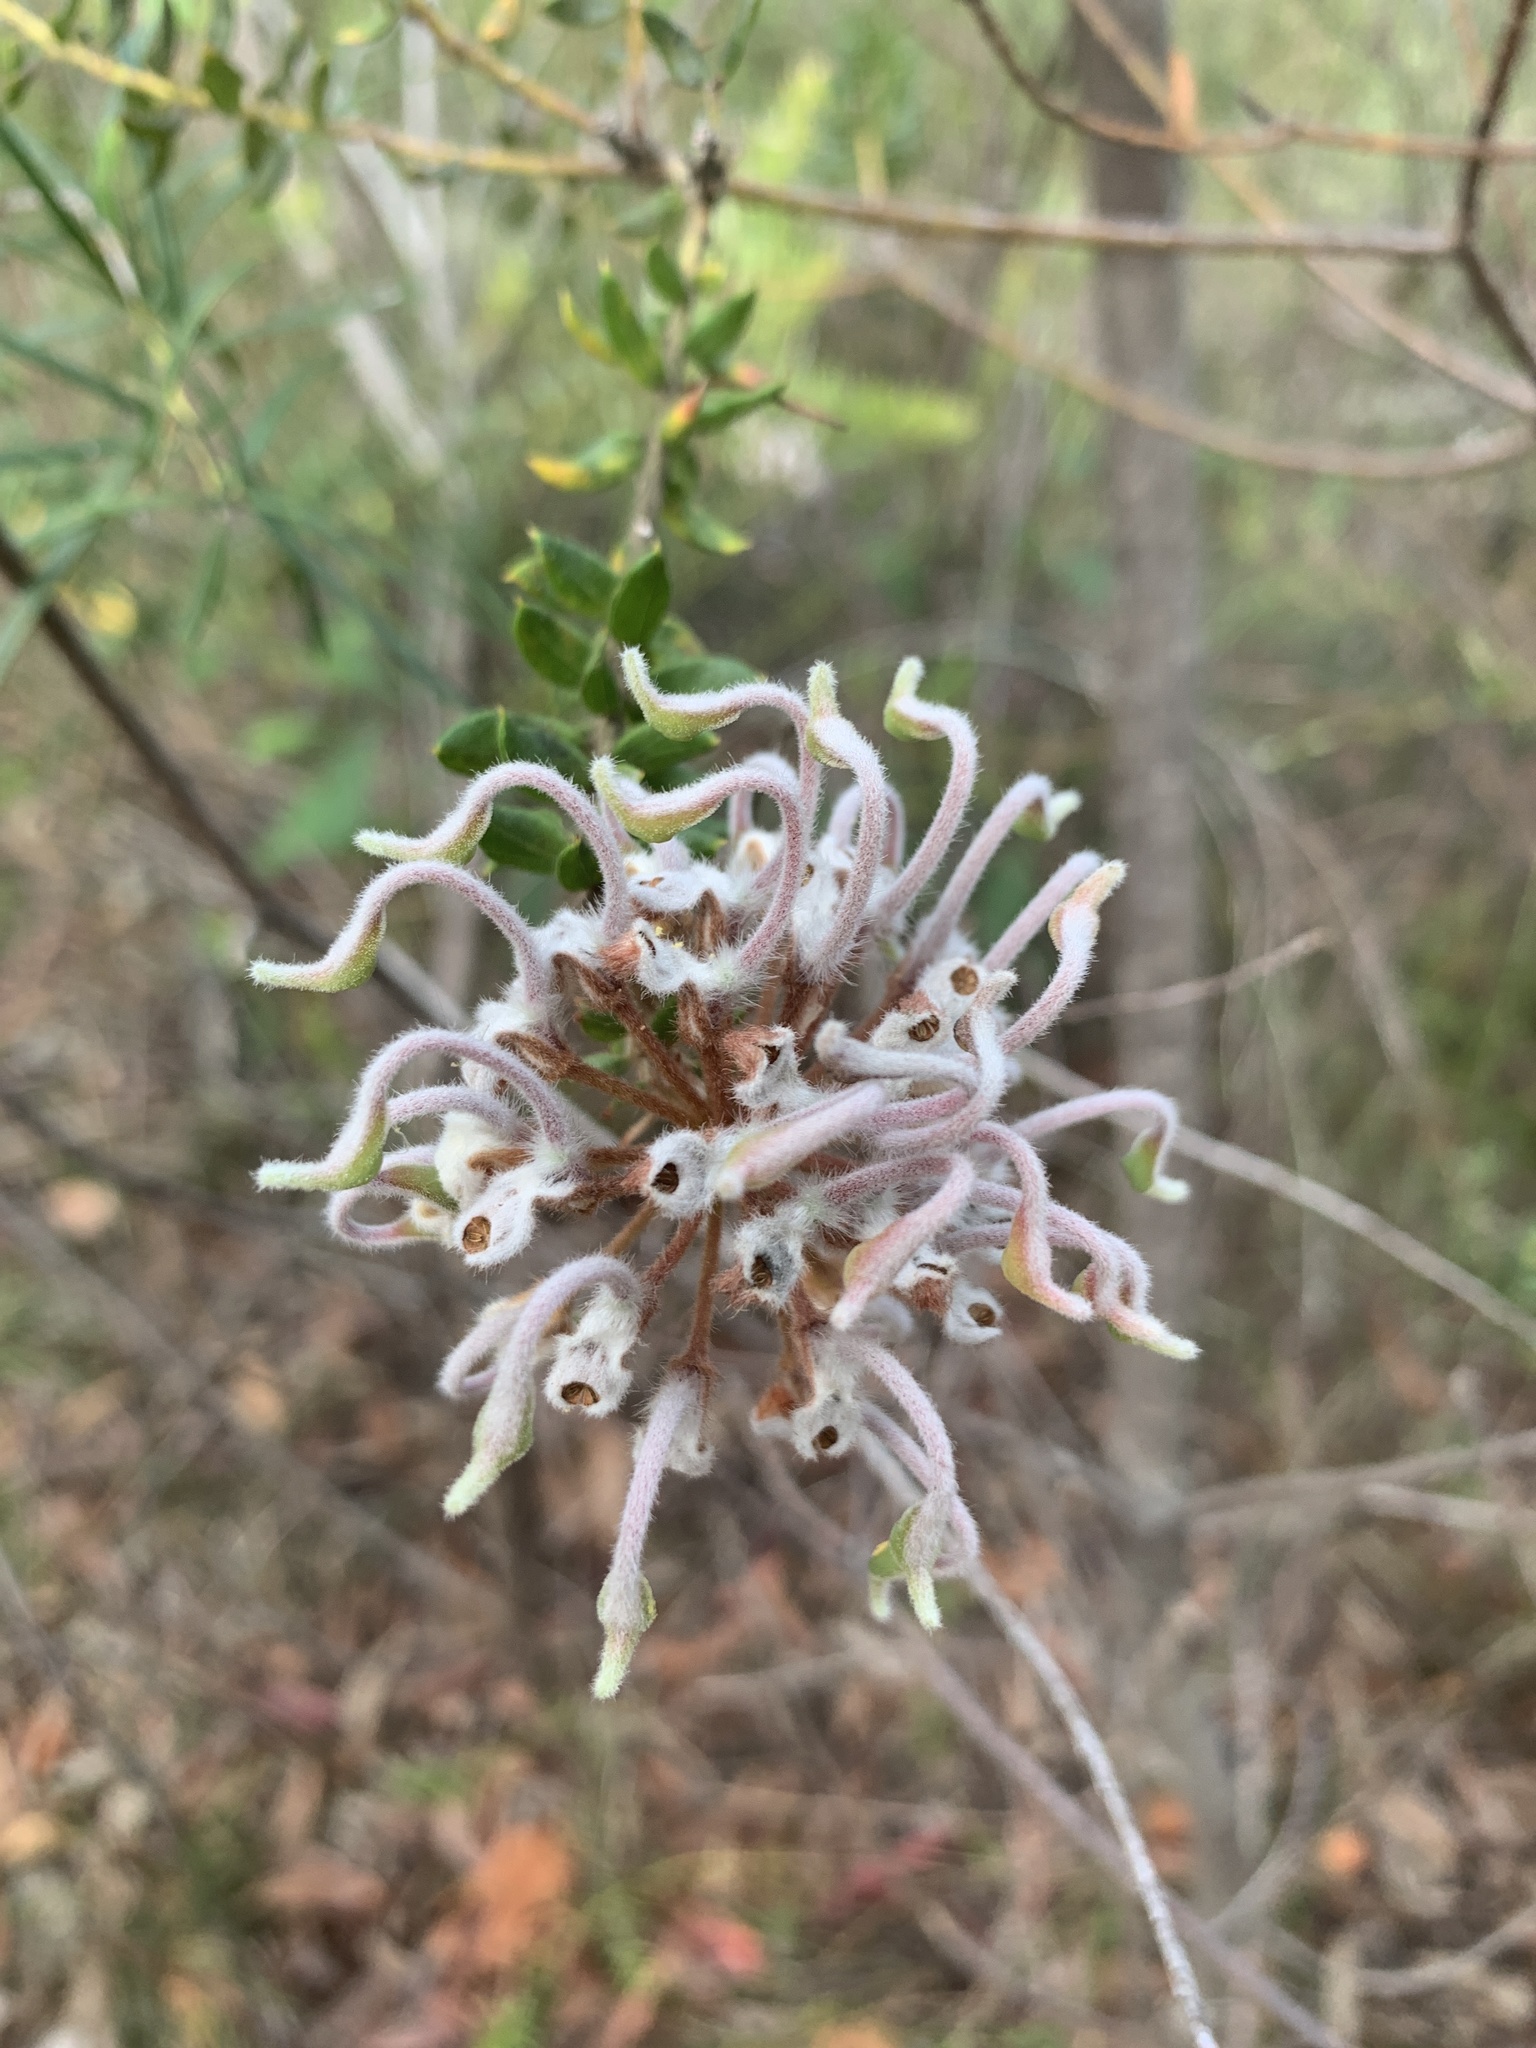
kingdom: Plantae
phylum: Tracheophyta
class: Magnoliopsida
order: Proteales
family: Proteaceae
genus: Grevillea
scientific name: Grevillea buxifolia
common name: Grey spiderflower
